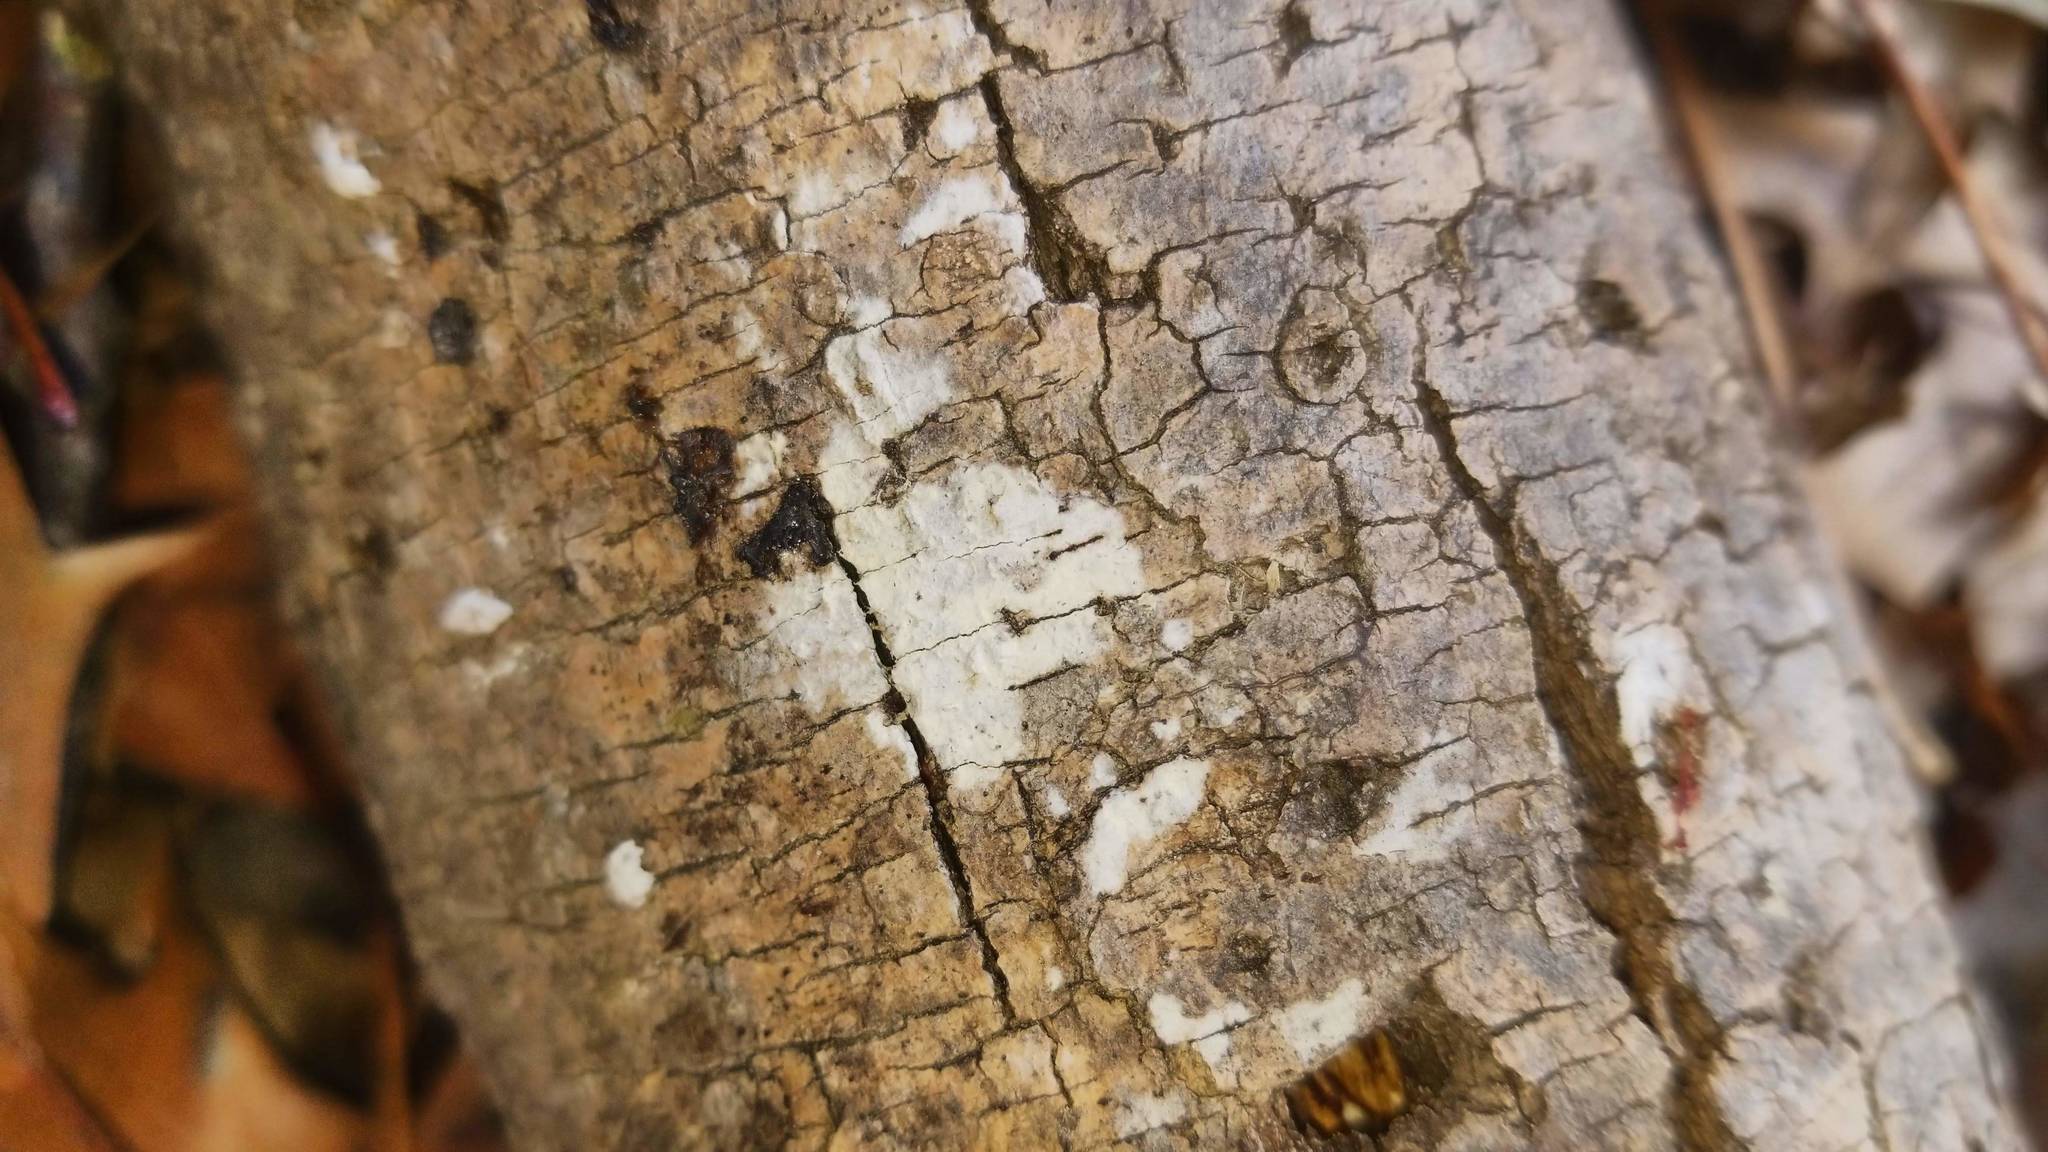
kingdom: Fungi
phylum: Basidiomycota
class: Agaricomycetes
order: Russulales
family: Stereaceae
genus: Xylobolus
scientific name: Xylobolus frustulatus
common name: Ceramic parchment
